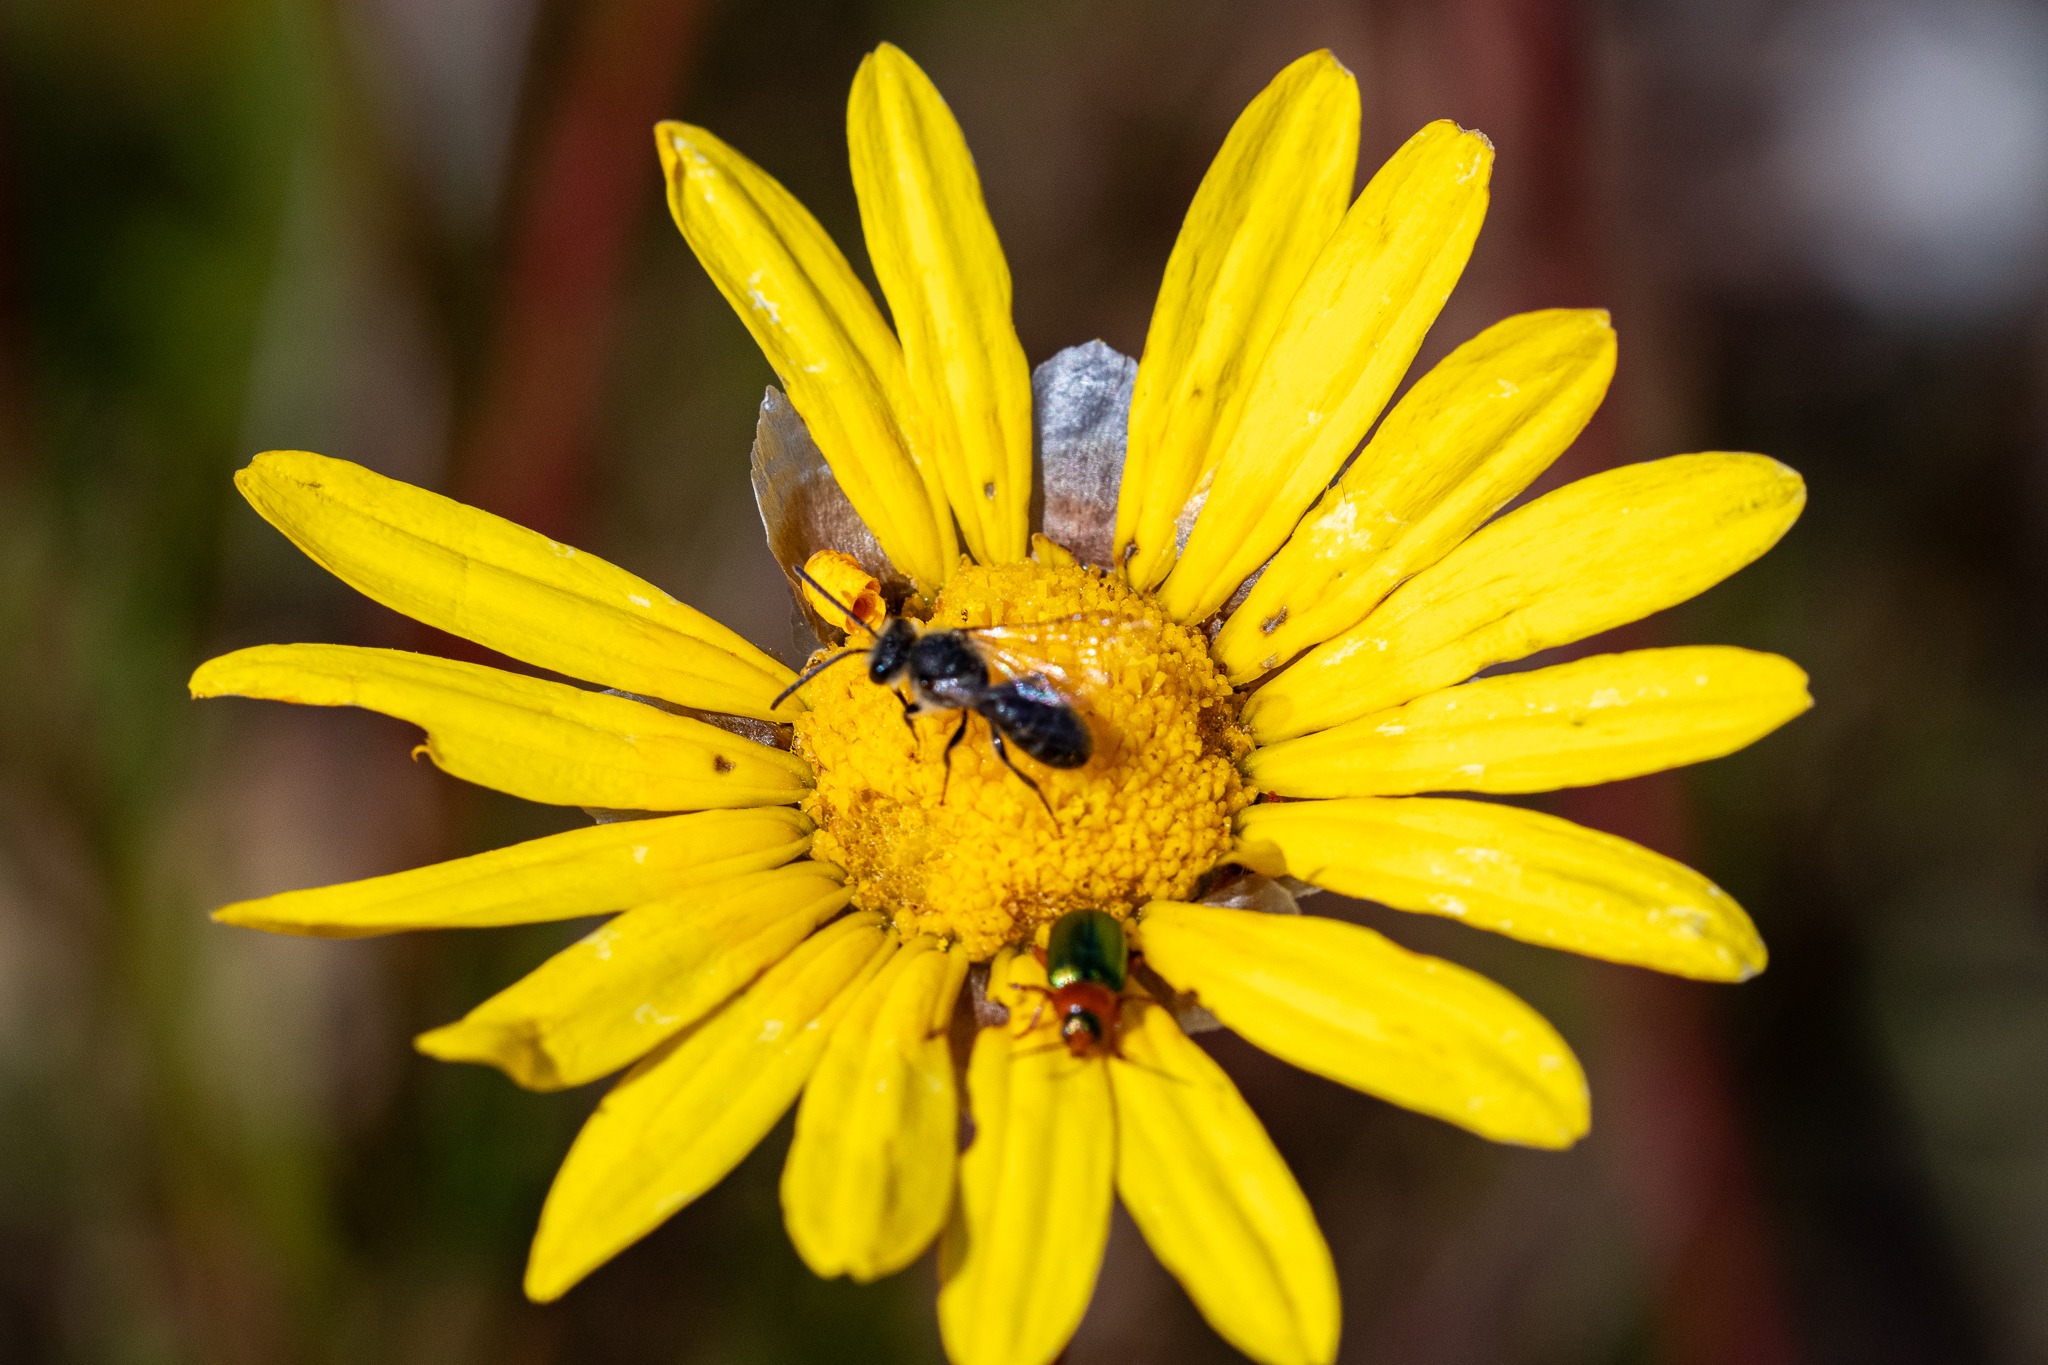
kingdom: Plantae
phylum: Tracheophyta
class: Magnoliopsida
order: Asterales
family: Asteraceae
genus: Ursinia
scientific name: Ursinia paleacea
